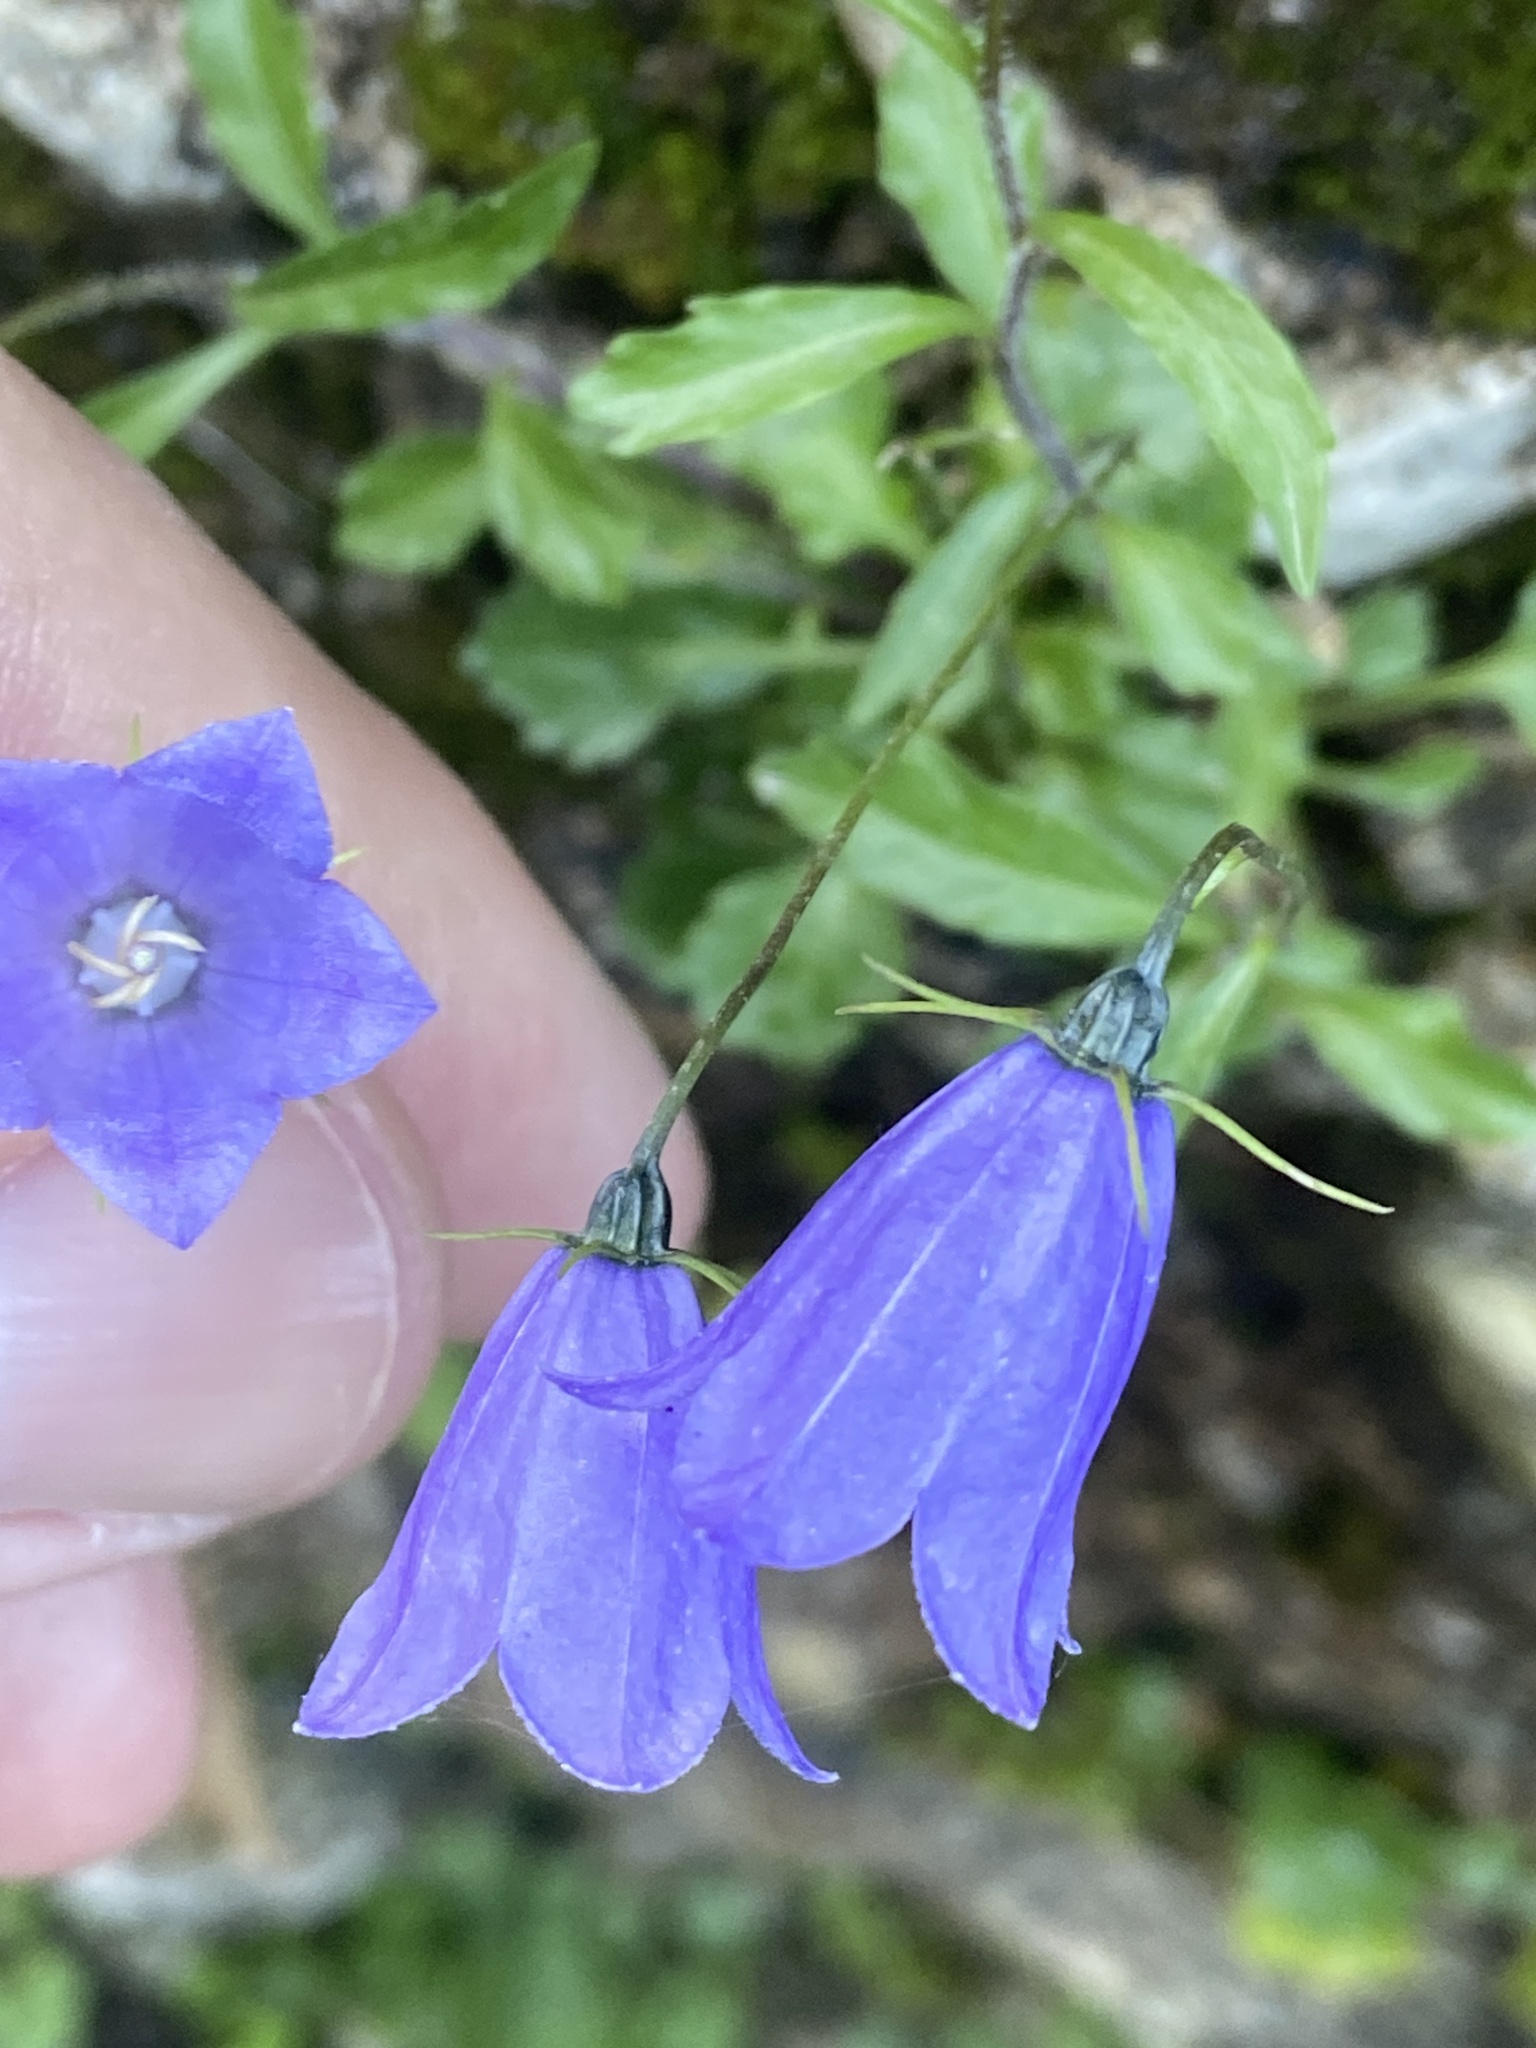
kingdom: Plantae
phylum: Tracheophyta
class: Magnoliopsida
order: Asterales
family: Campanulaceae
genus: Campanula
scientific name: Campanula cochleariifolia
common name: Fairies'-thimbles
